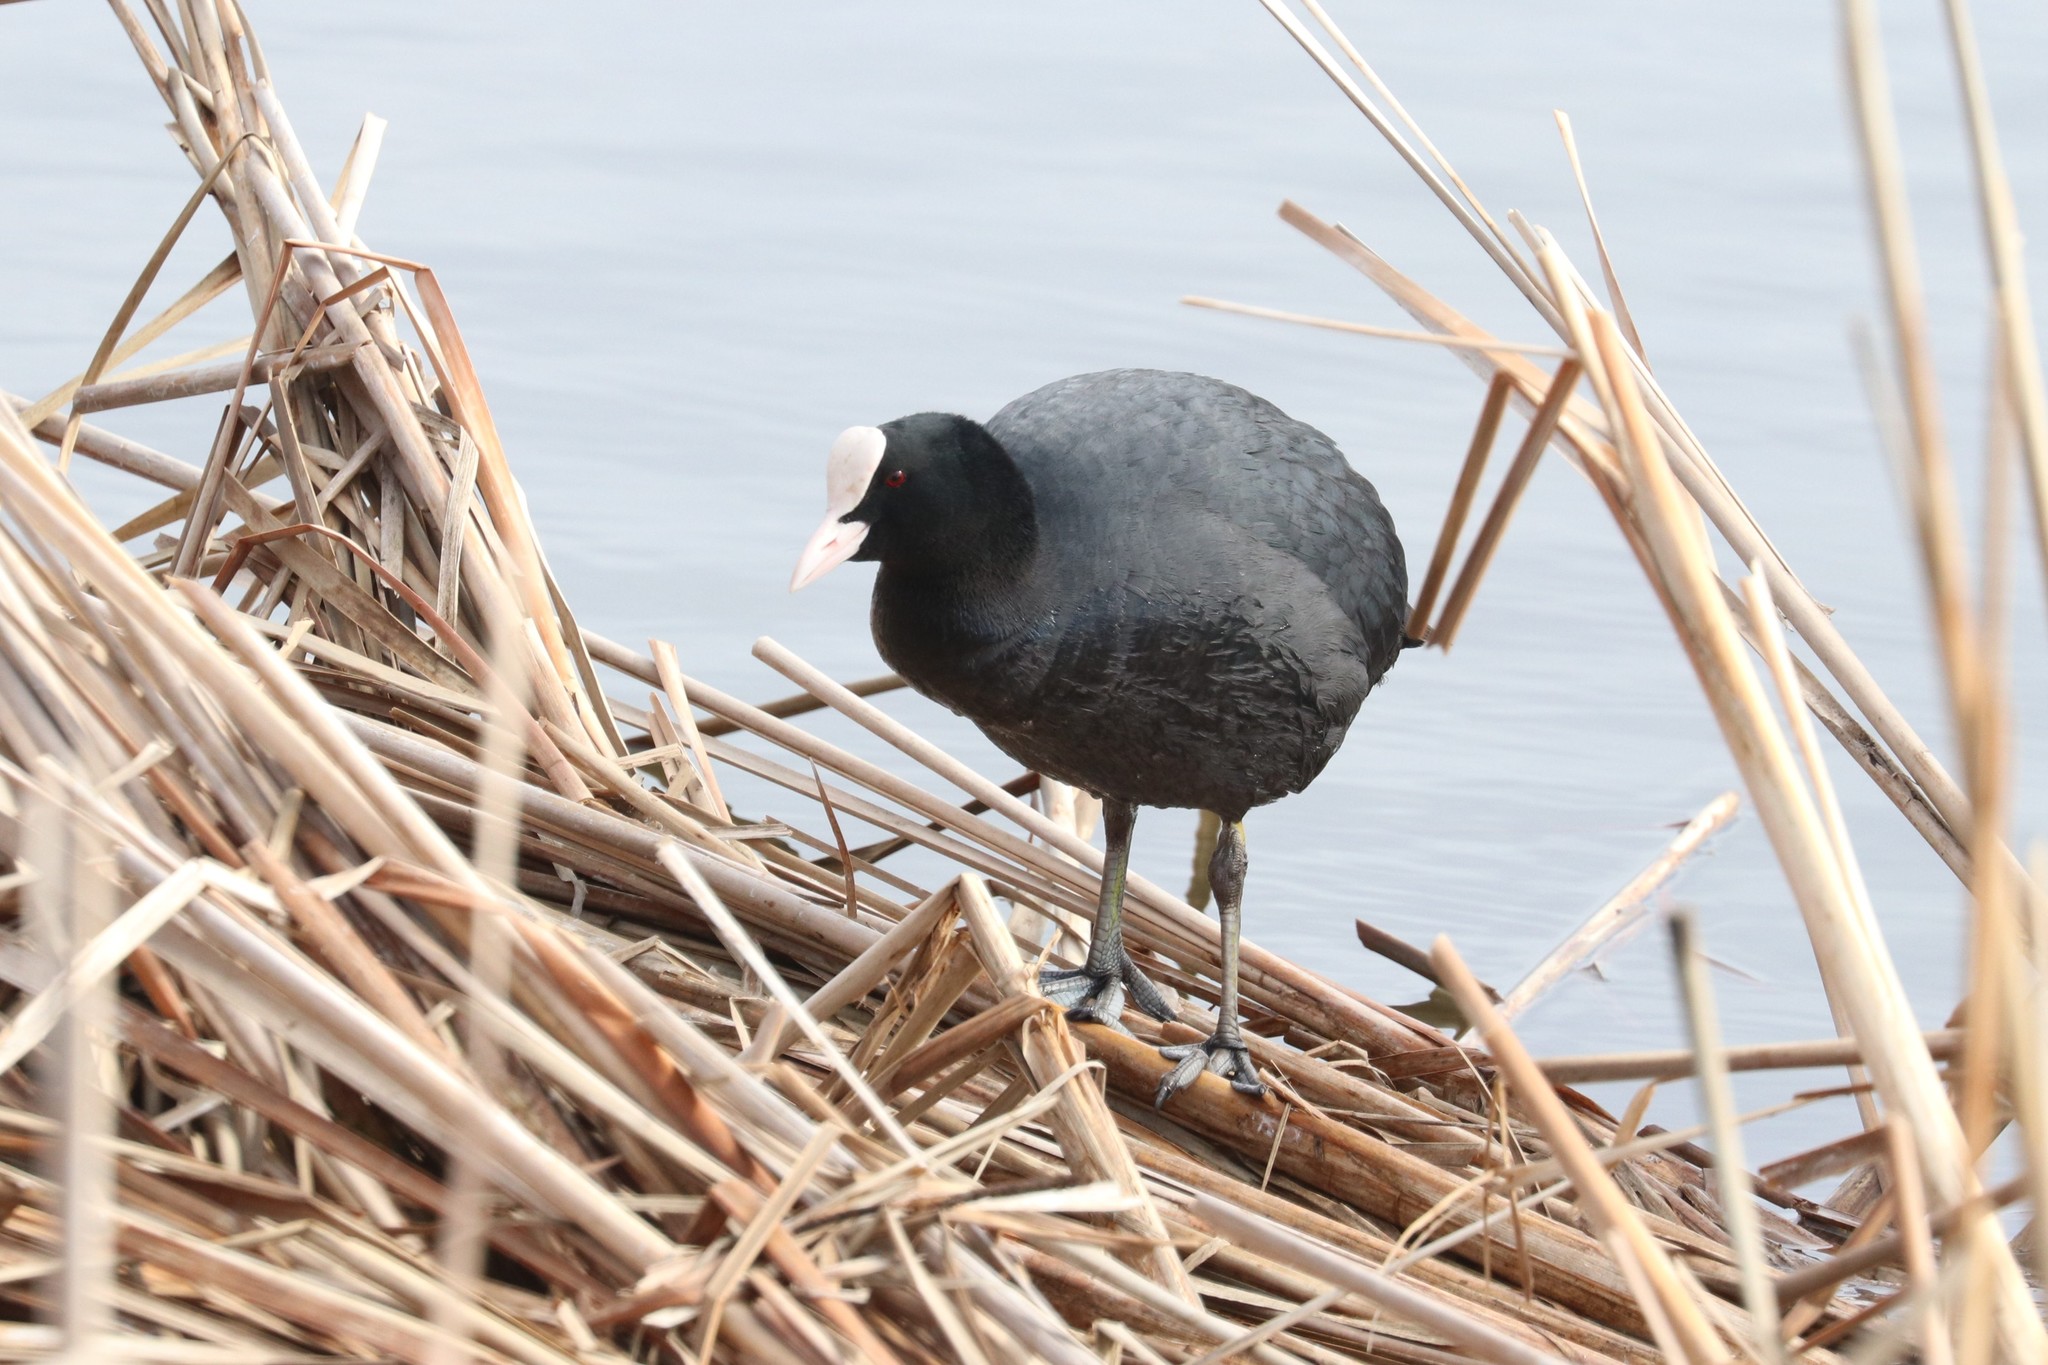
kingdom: Animalia
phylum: Chordata
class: Aves
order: Gruiformes
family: Rallidae
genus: Fulica
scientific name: Fulica atra
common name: Eurasian coot
